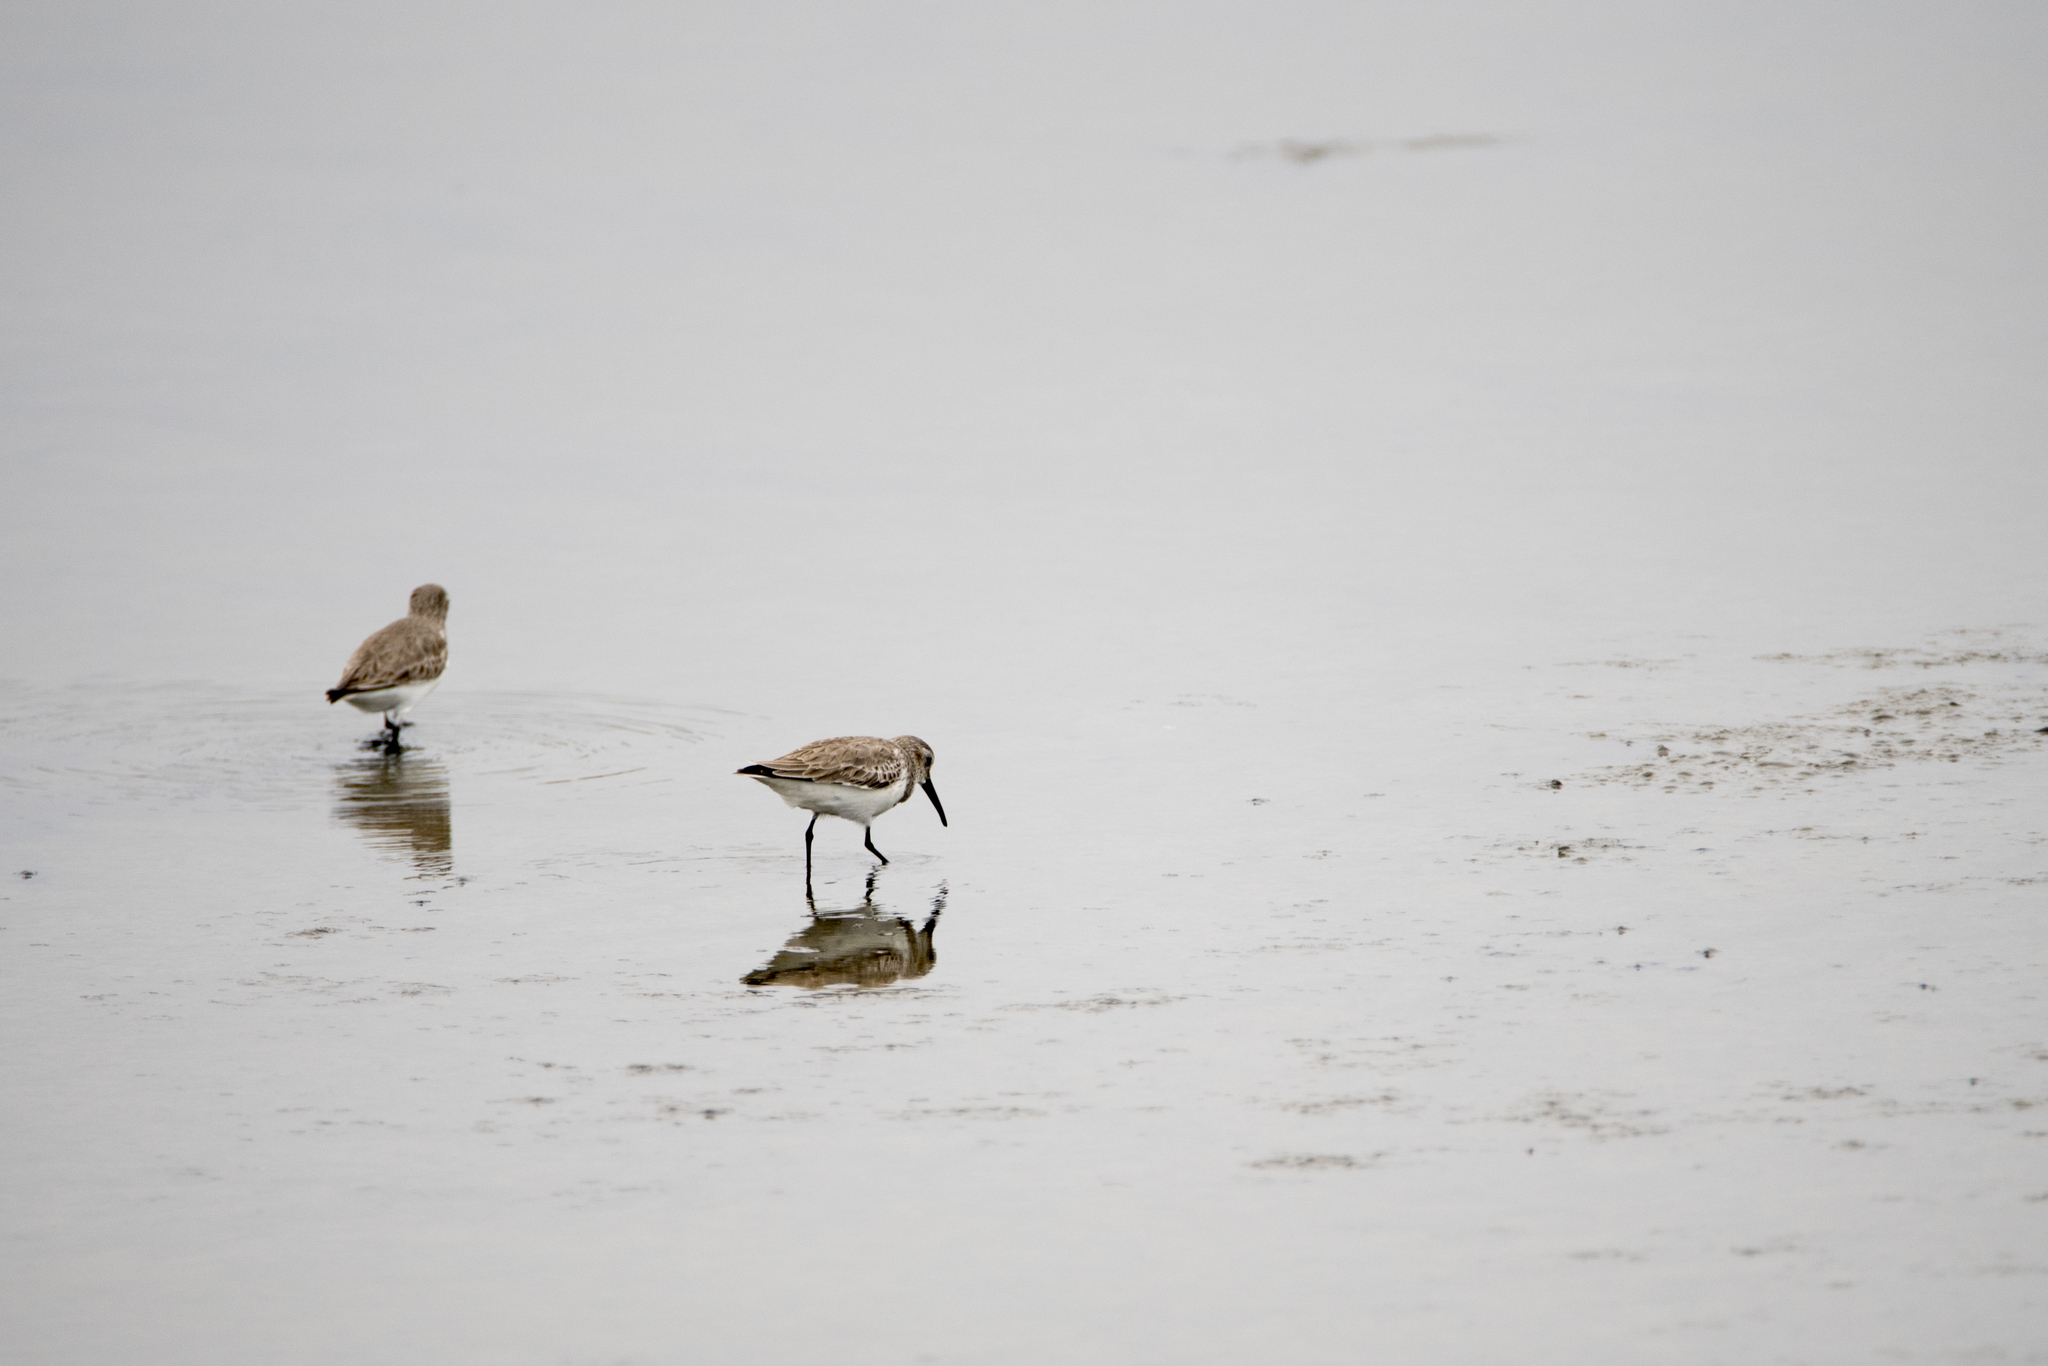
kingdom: Animalia
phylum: Chordata
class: Aves
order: Charadriiformes
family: Scolopacidae
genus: Calidris
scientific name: Calidris alpina
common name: Dunlin
